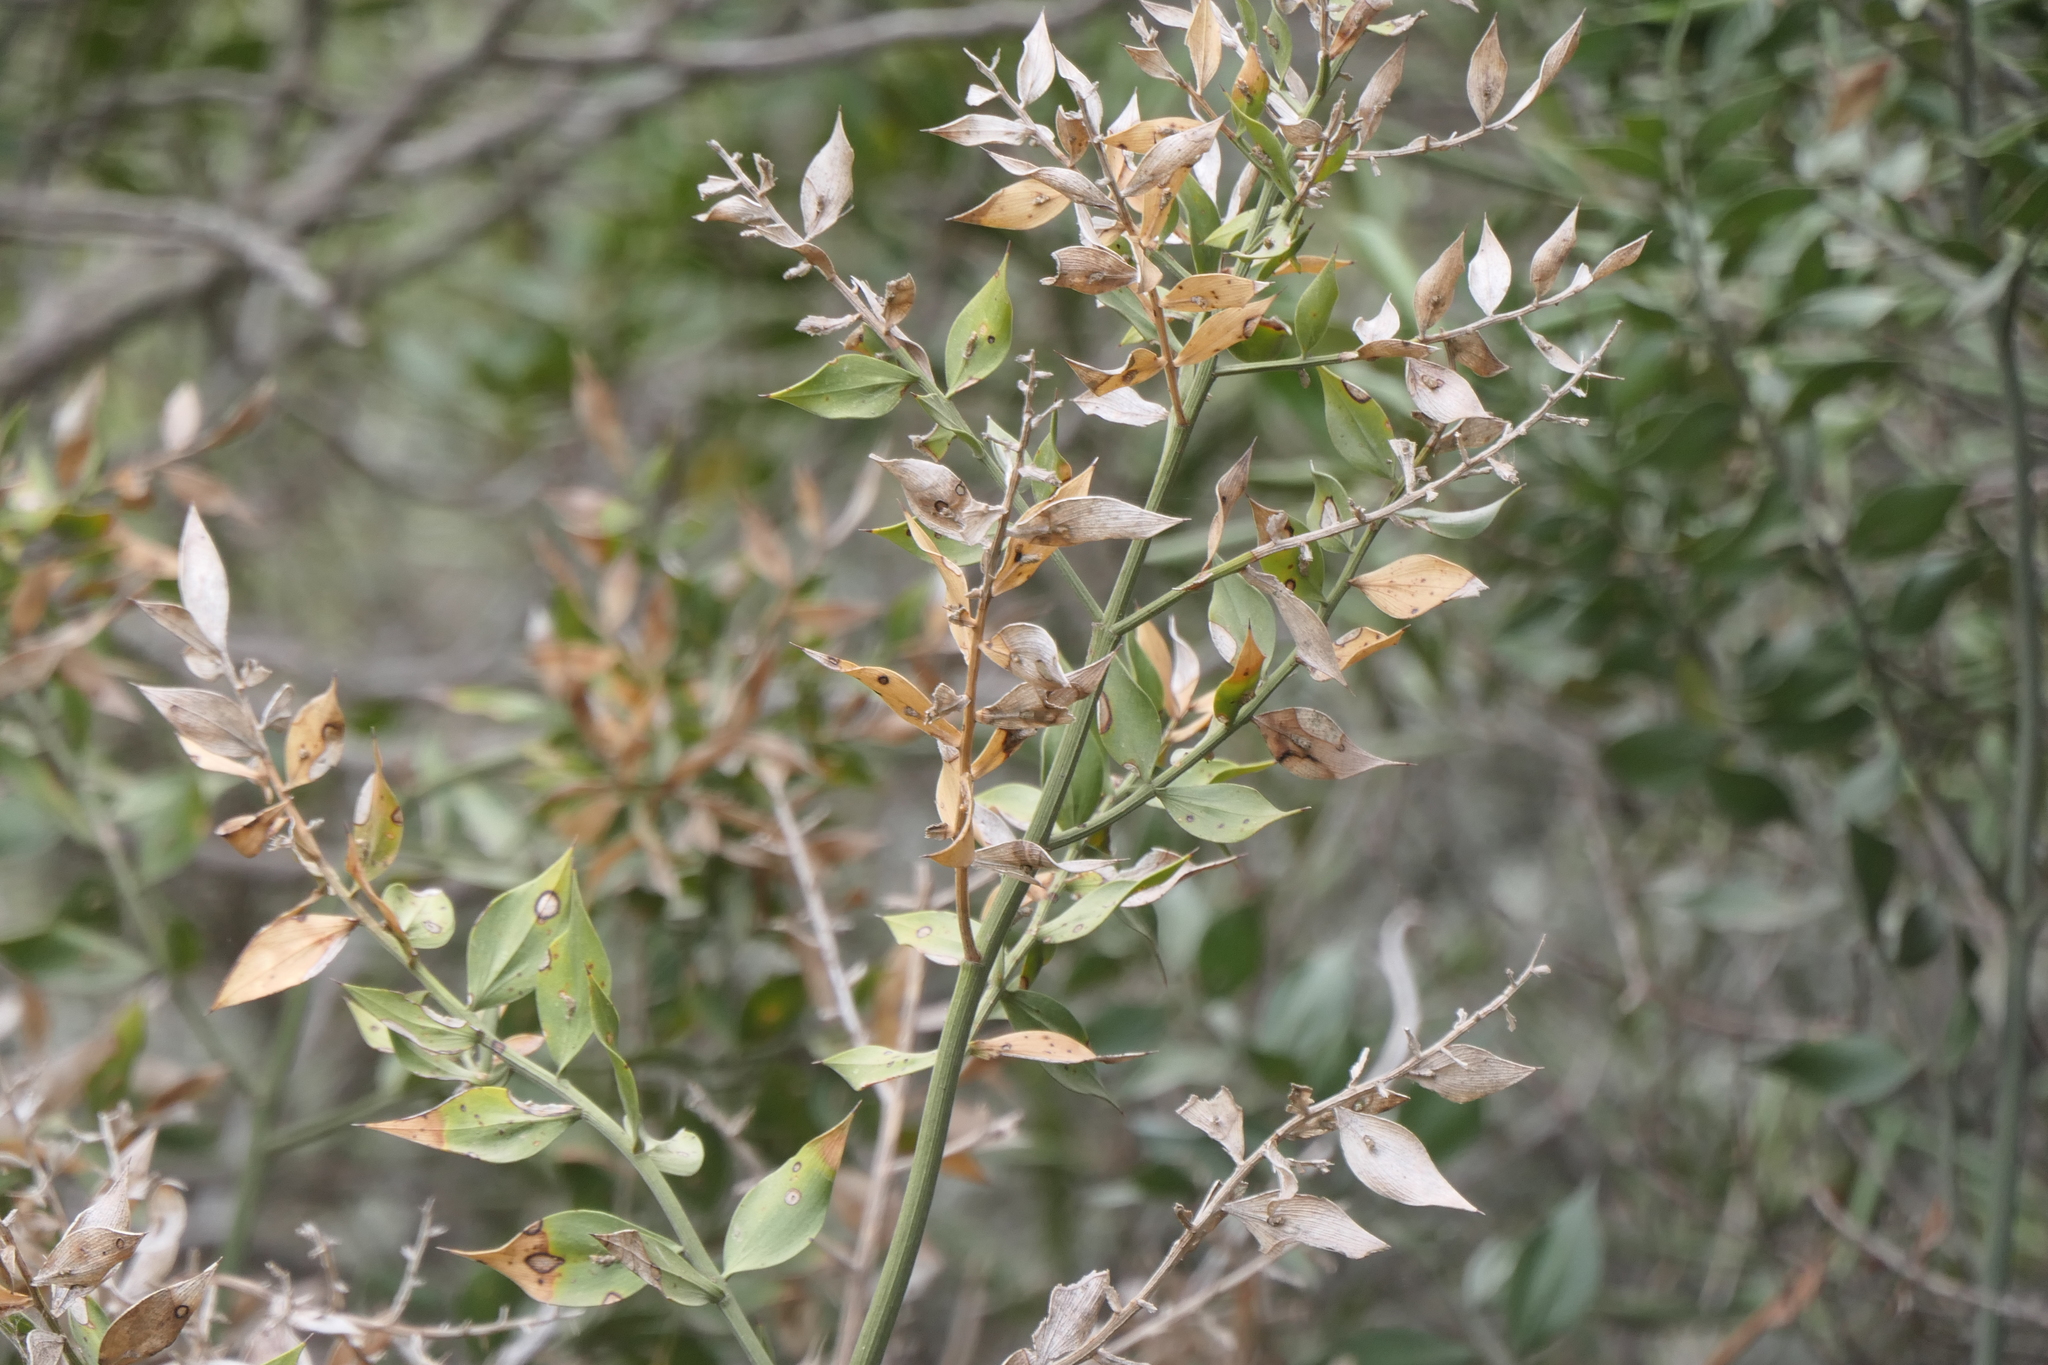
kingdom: Plantae
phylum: Tracheophyta
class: Liliopsida
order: Asparagales
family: Asparagaceae
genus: Ruscus
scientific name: Ruscus aculeatus
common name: Butcher's-broom
